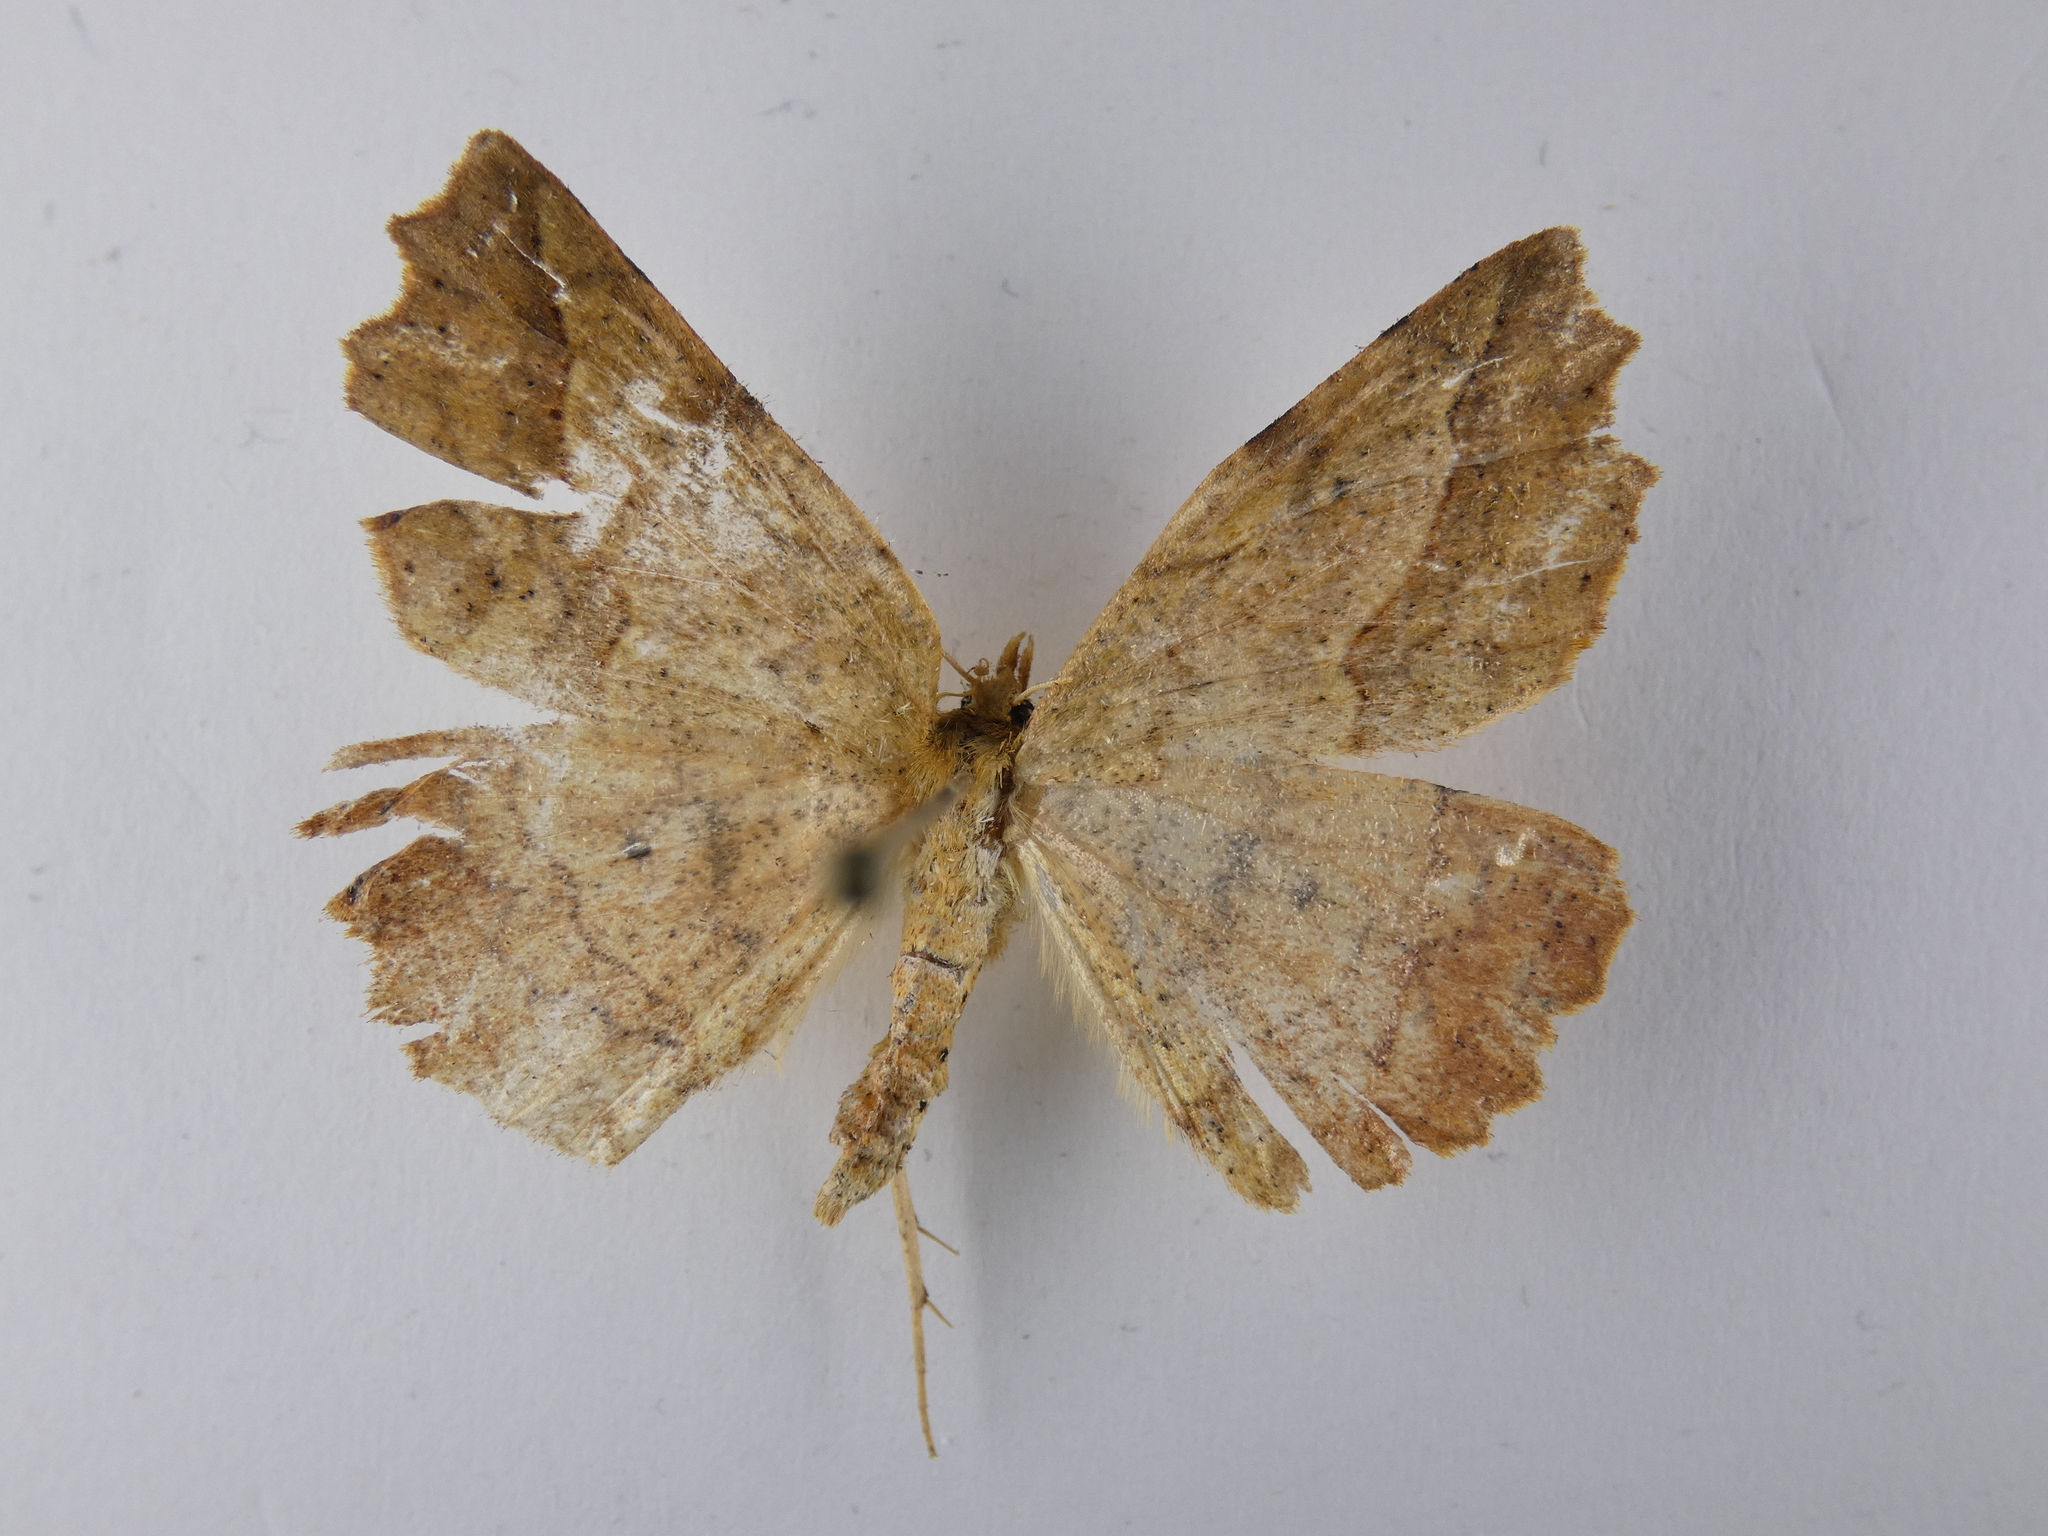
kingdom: Animalia
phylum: Arthropoda
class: Insecta
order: Lepidoptera
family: Geometridae
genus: Ischalis
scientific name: Ischalis variabilis
